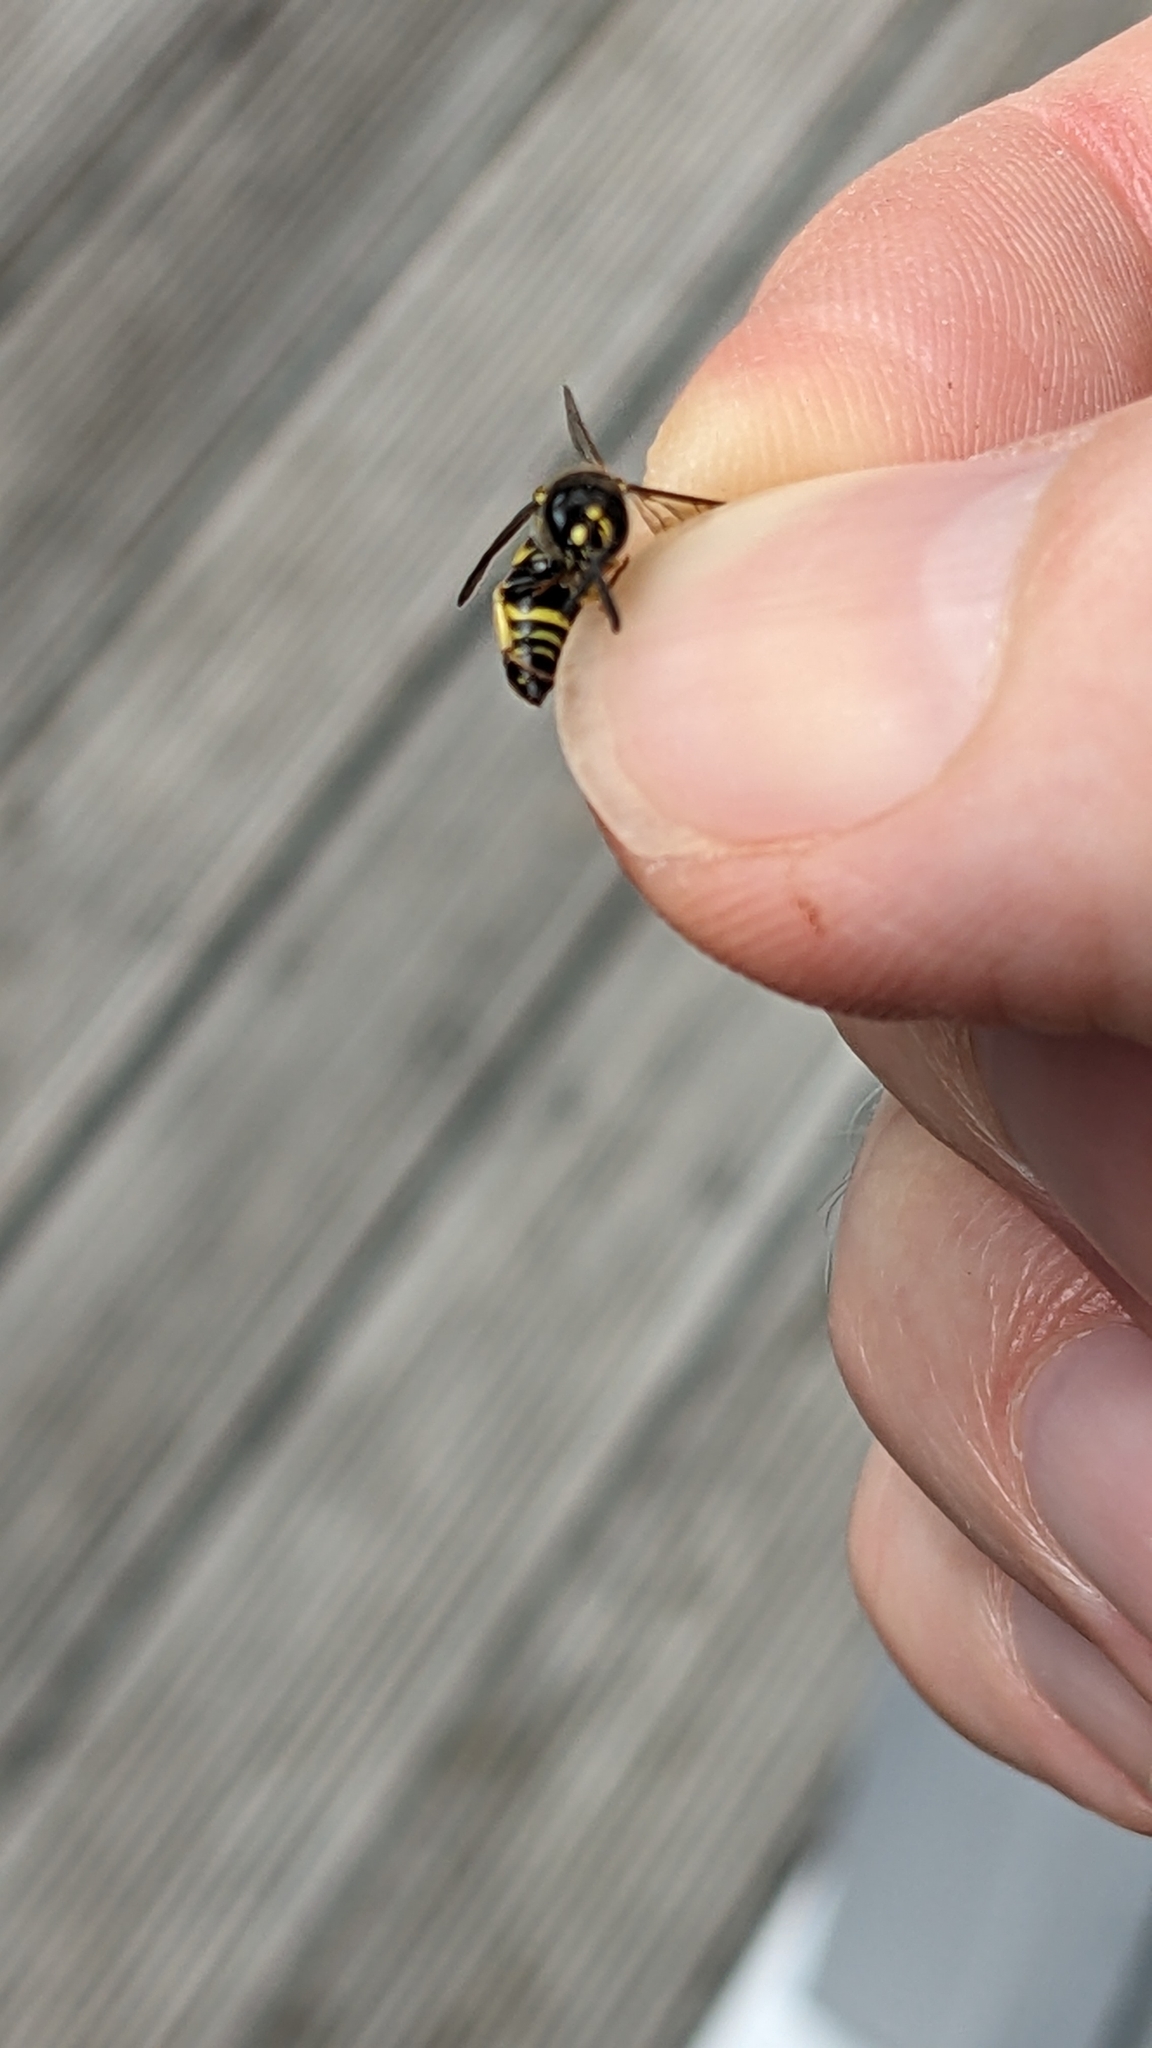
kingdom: Animalia
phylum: Arthropoda
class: Insecta
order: Hymenoptera
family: Vespidae
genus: Ancistrocerus
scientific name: Ancistrocerus gazella
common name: European tube wasp
